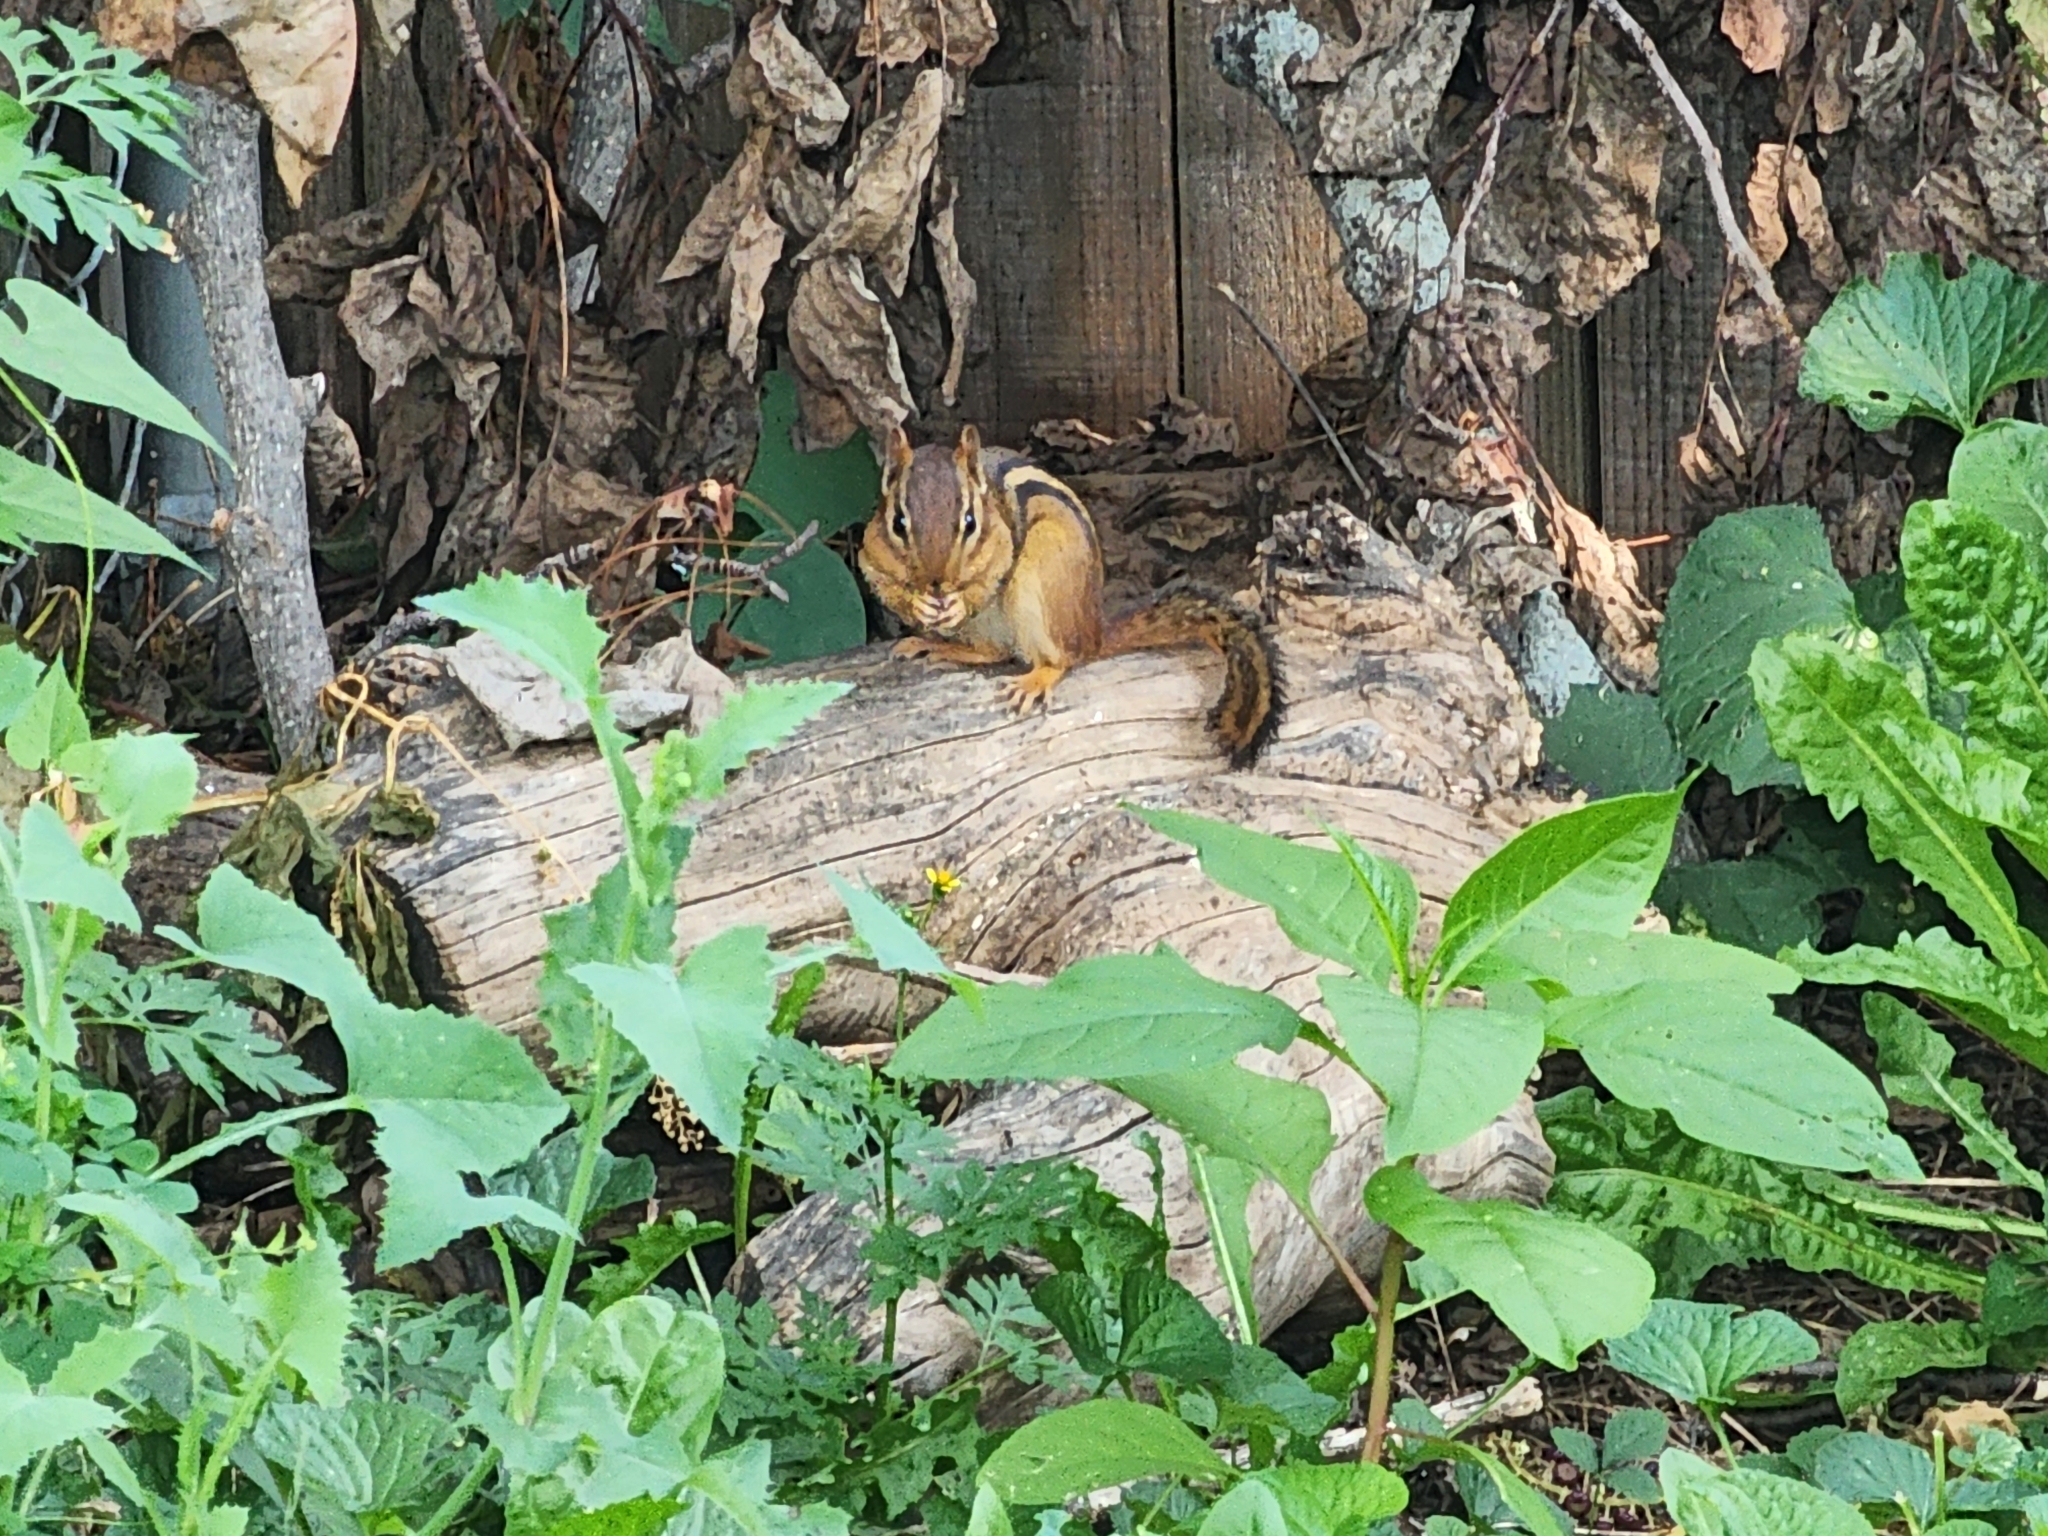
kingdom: Animalia
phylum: Chordata
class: Mammalia
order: Rodentia
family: Sciuridae
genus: Tamias
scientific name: Tamias striatus
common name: Eastern chipmunk
